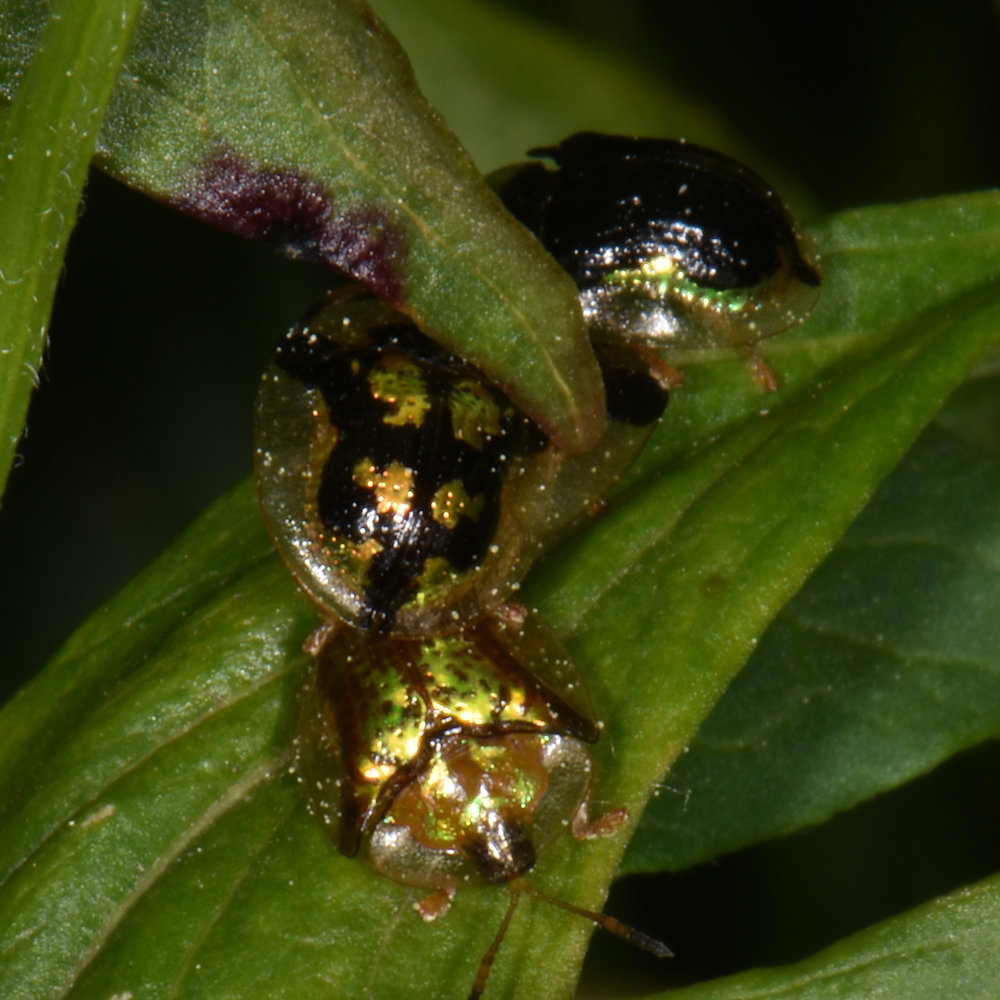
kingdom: Animalia
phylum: Arthropoda
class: Insecta
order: Coleoptera
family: Chrysomelidae
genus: Deloyala
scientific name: Deloyala guttata
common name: Mottled tortoise beetle
